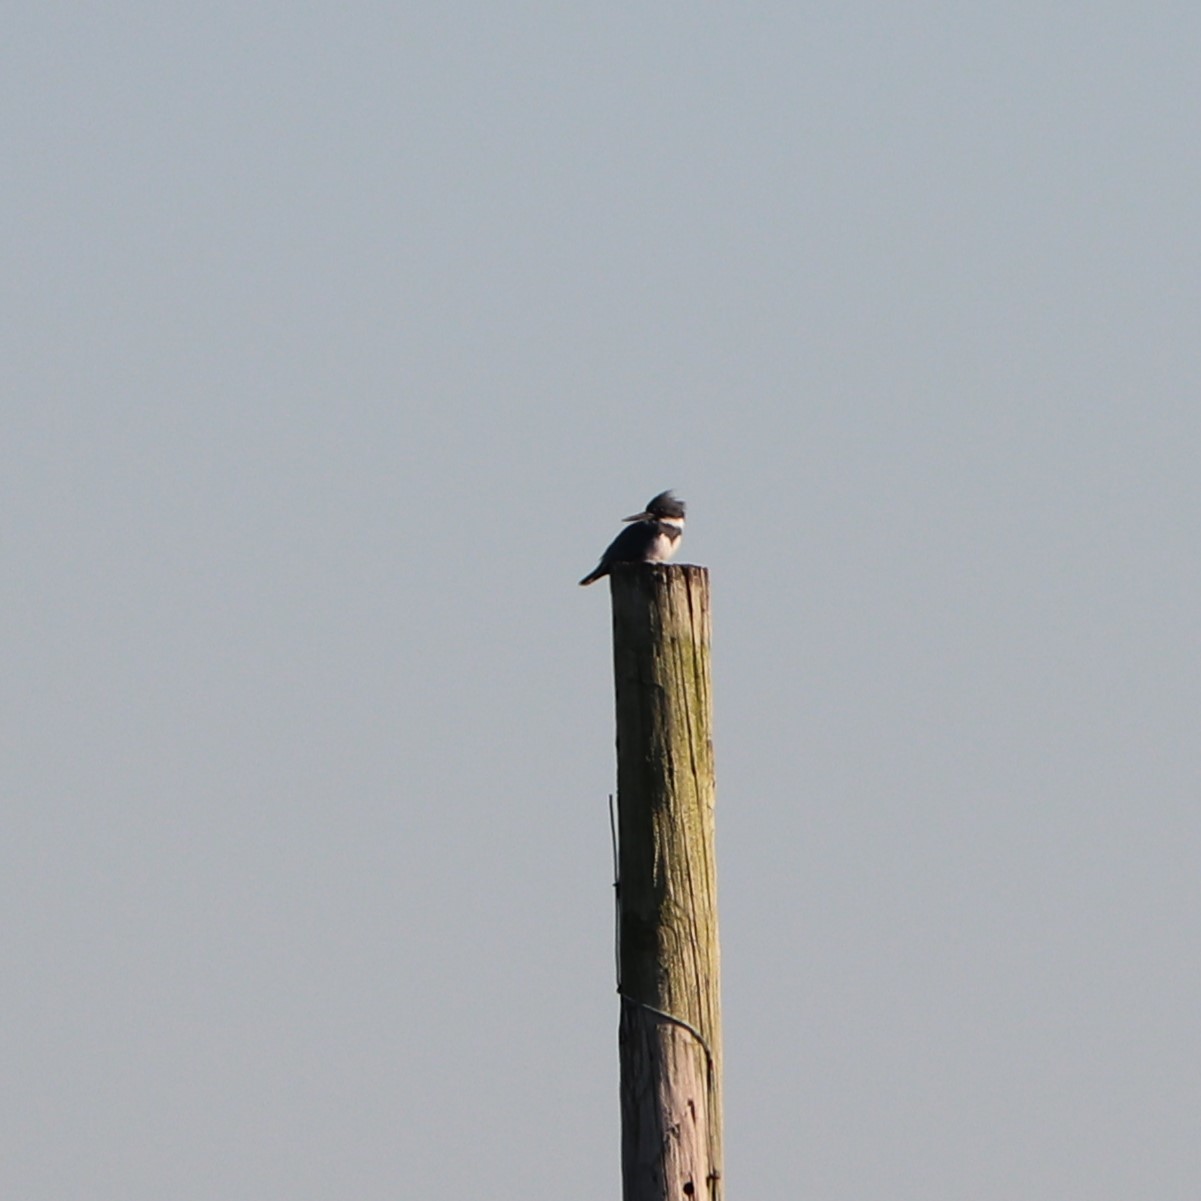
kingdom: Animalia
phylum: Chordata
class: Aves
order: Coraciiformes
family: Alcedinidae
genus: Megaceryle
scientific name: Megaceryle alcyon
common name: Belted kingfisher
